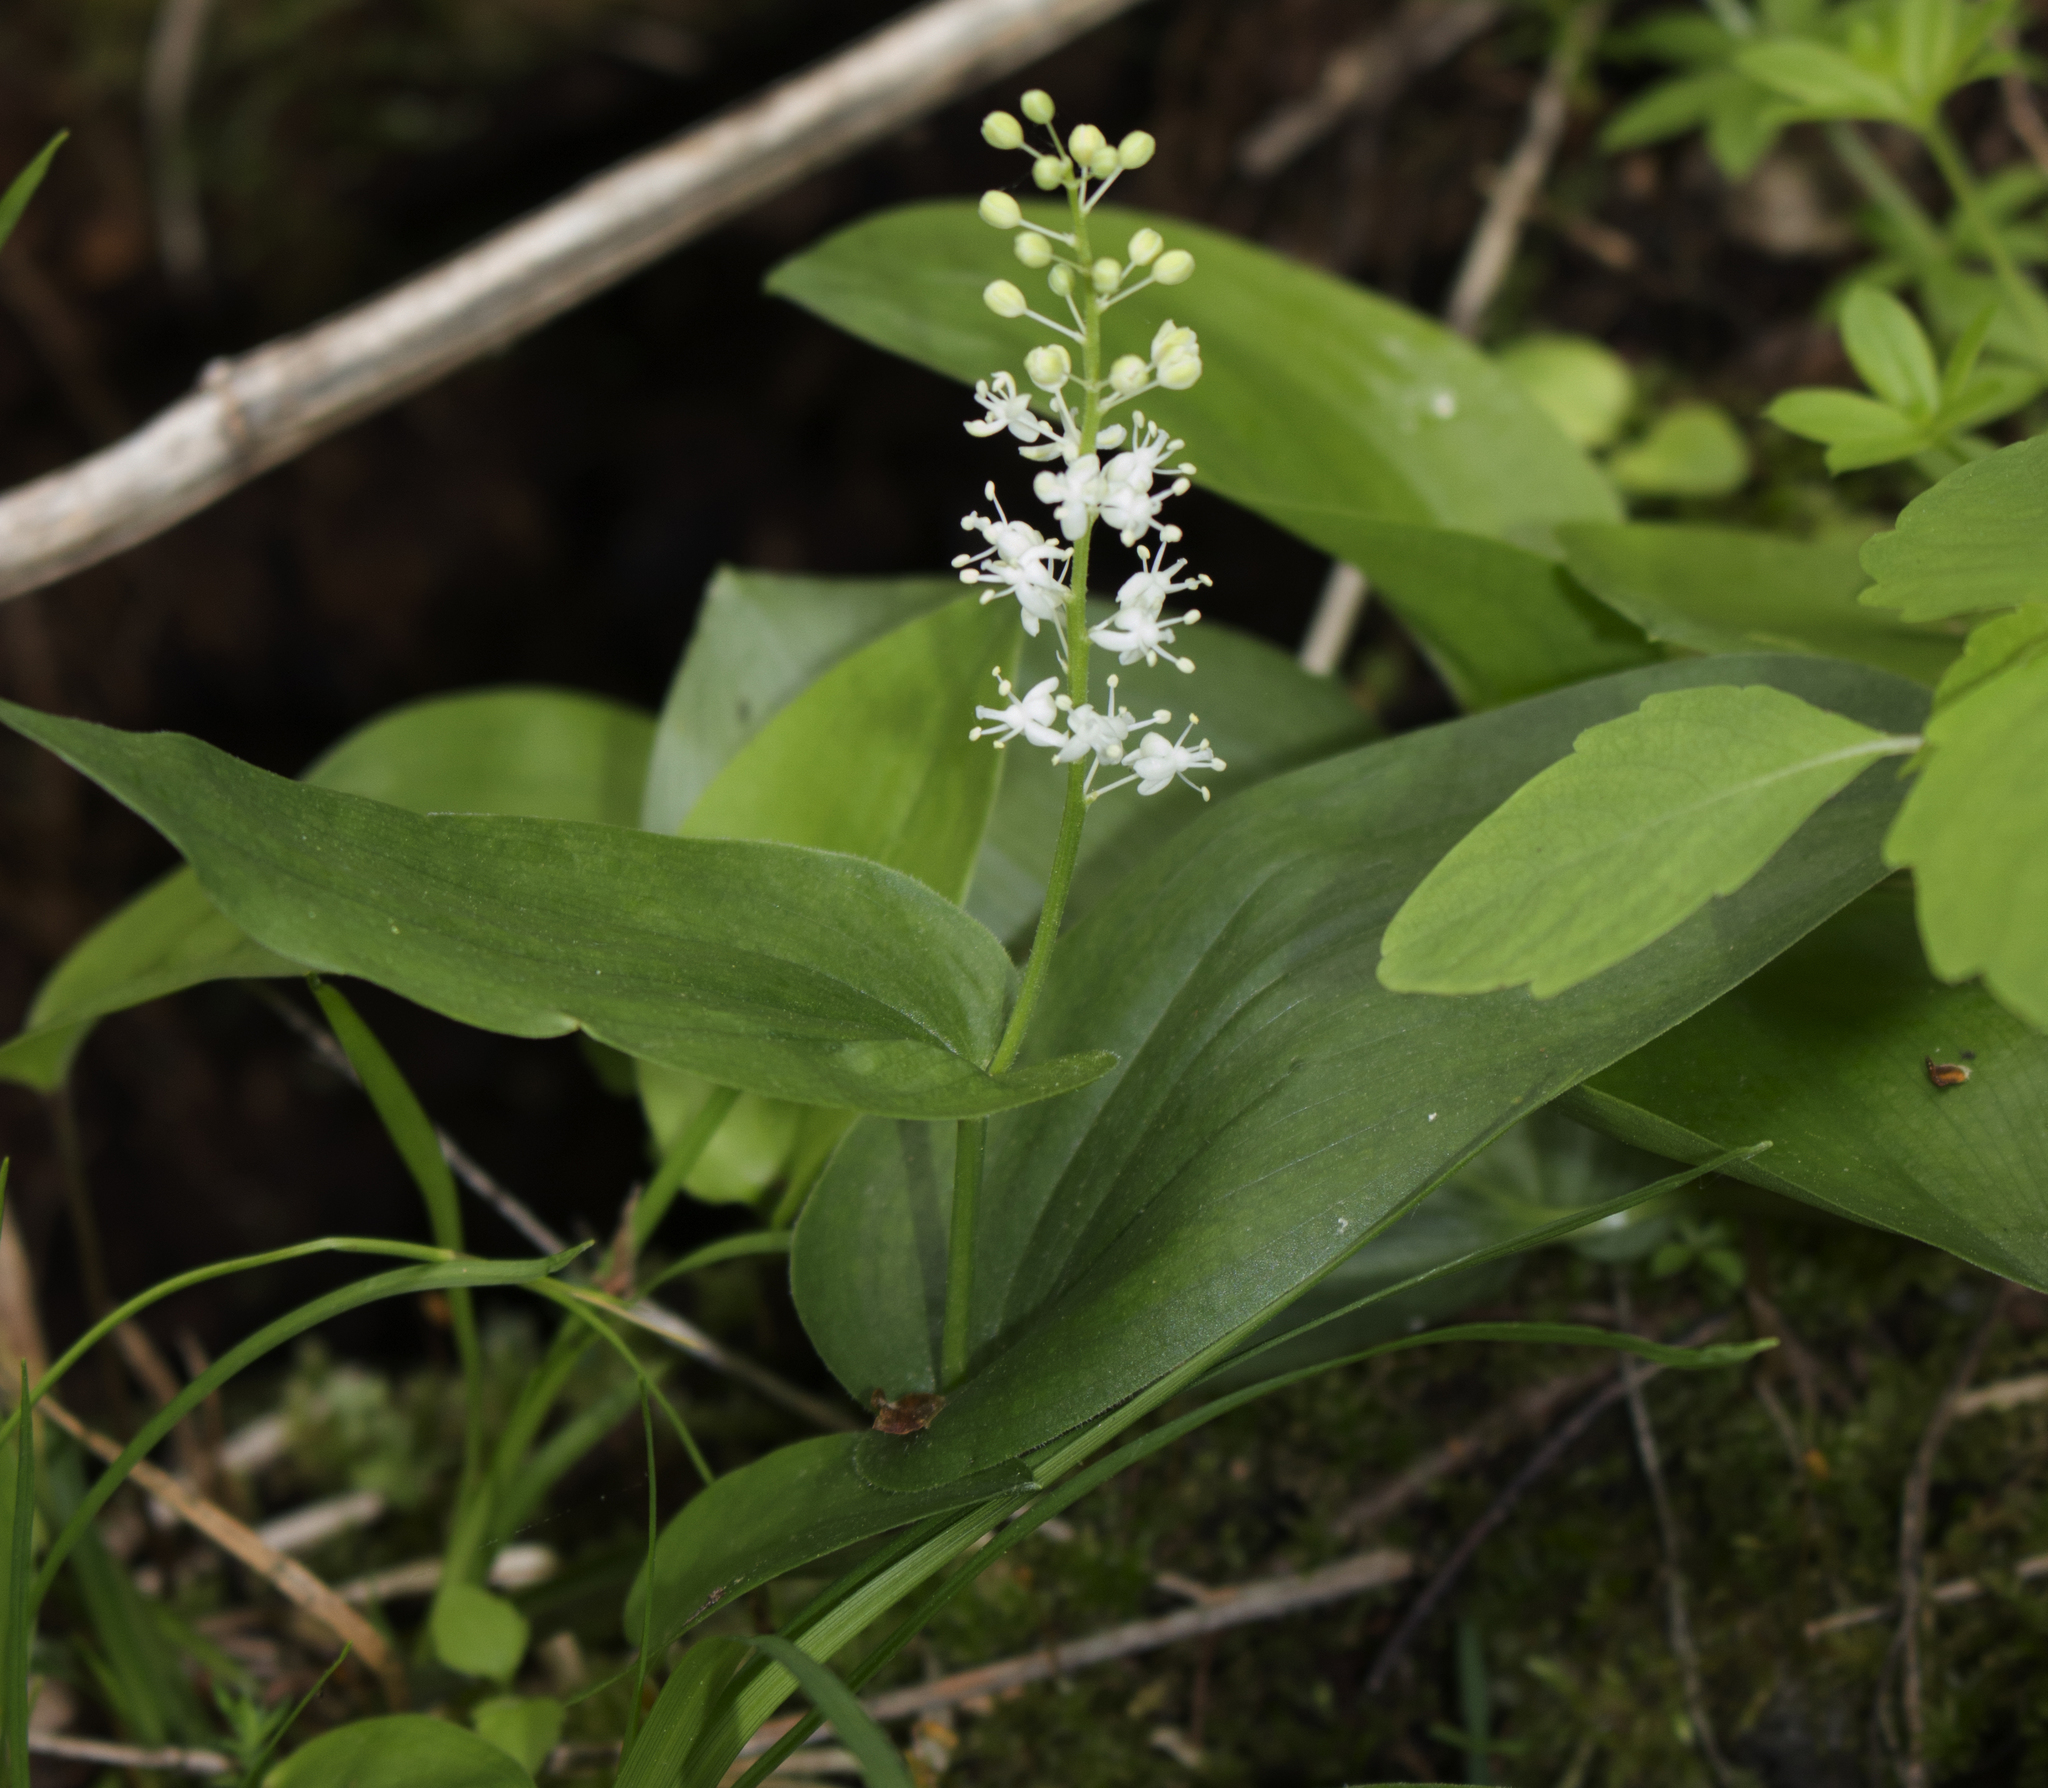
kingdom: Plantae
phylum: Tracheophyta
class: Liliopsida
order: Asparagales
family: Asparagaceae
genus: Maianthemum
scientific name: Maianthemum canadense
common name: False lily-of-the-valley
